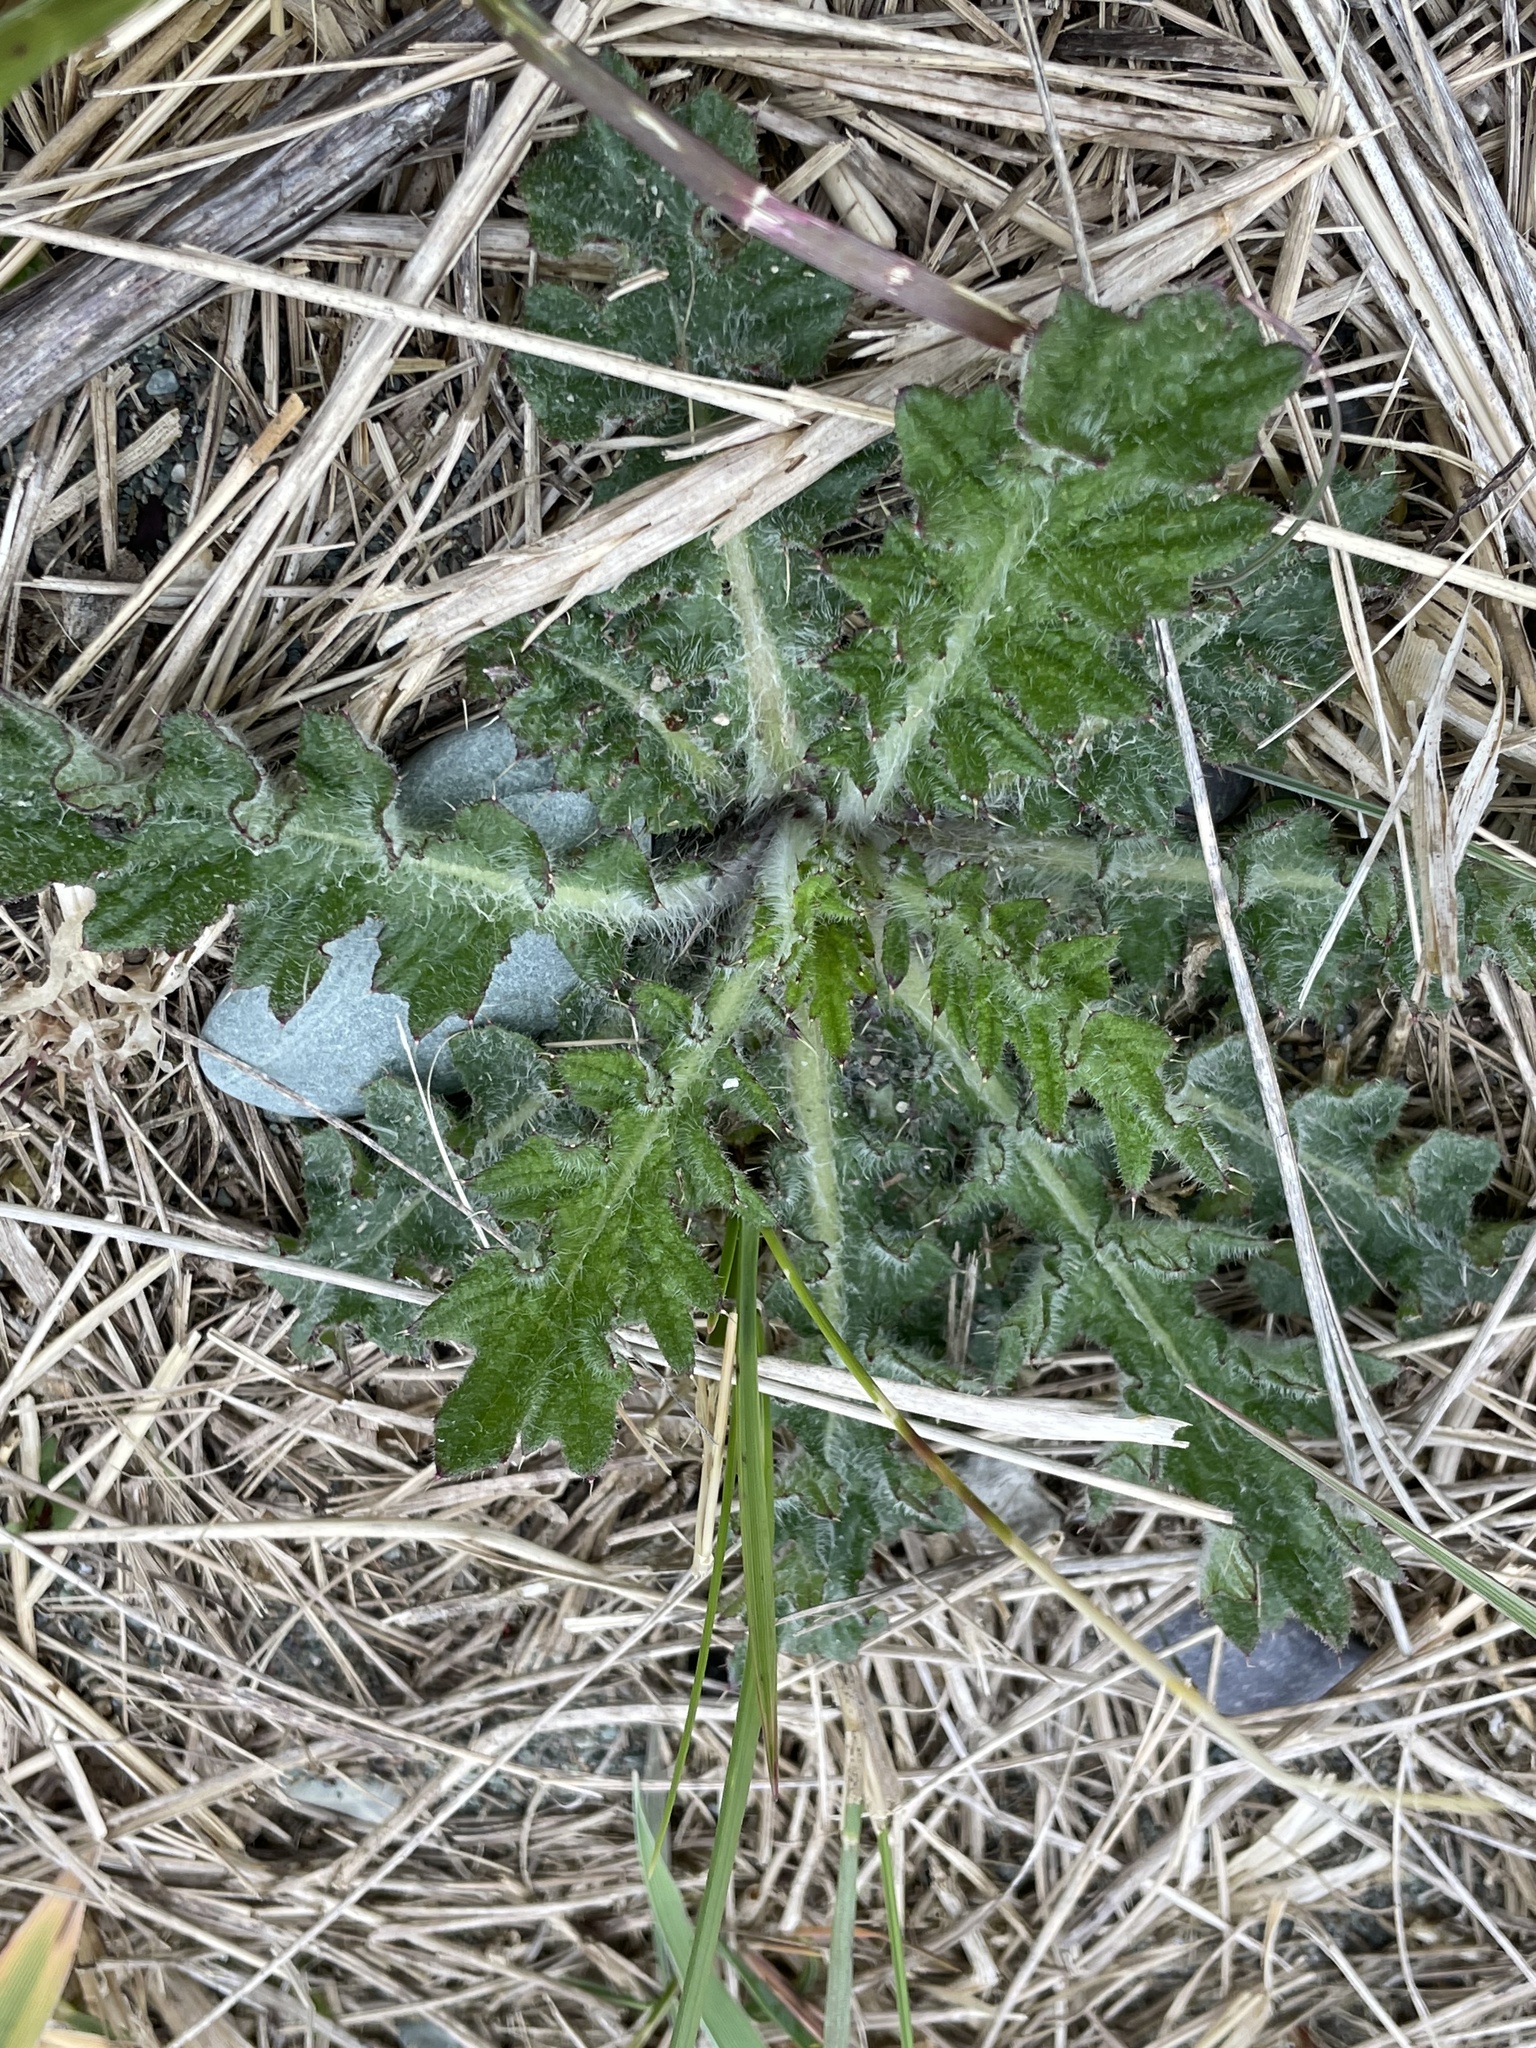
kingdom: Plantae
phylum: Tracheophyta
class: Magnoliopsida
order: Asterales
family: Asteraceae
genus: Cirsium
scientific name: Cirsium vulgare
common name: Bull thistle
